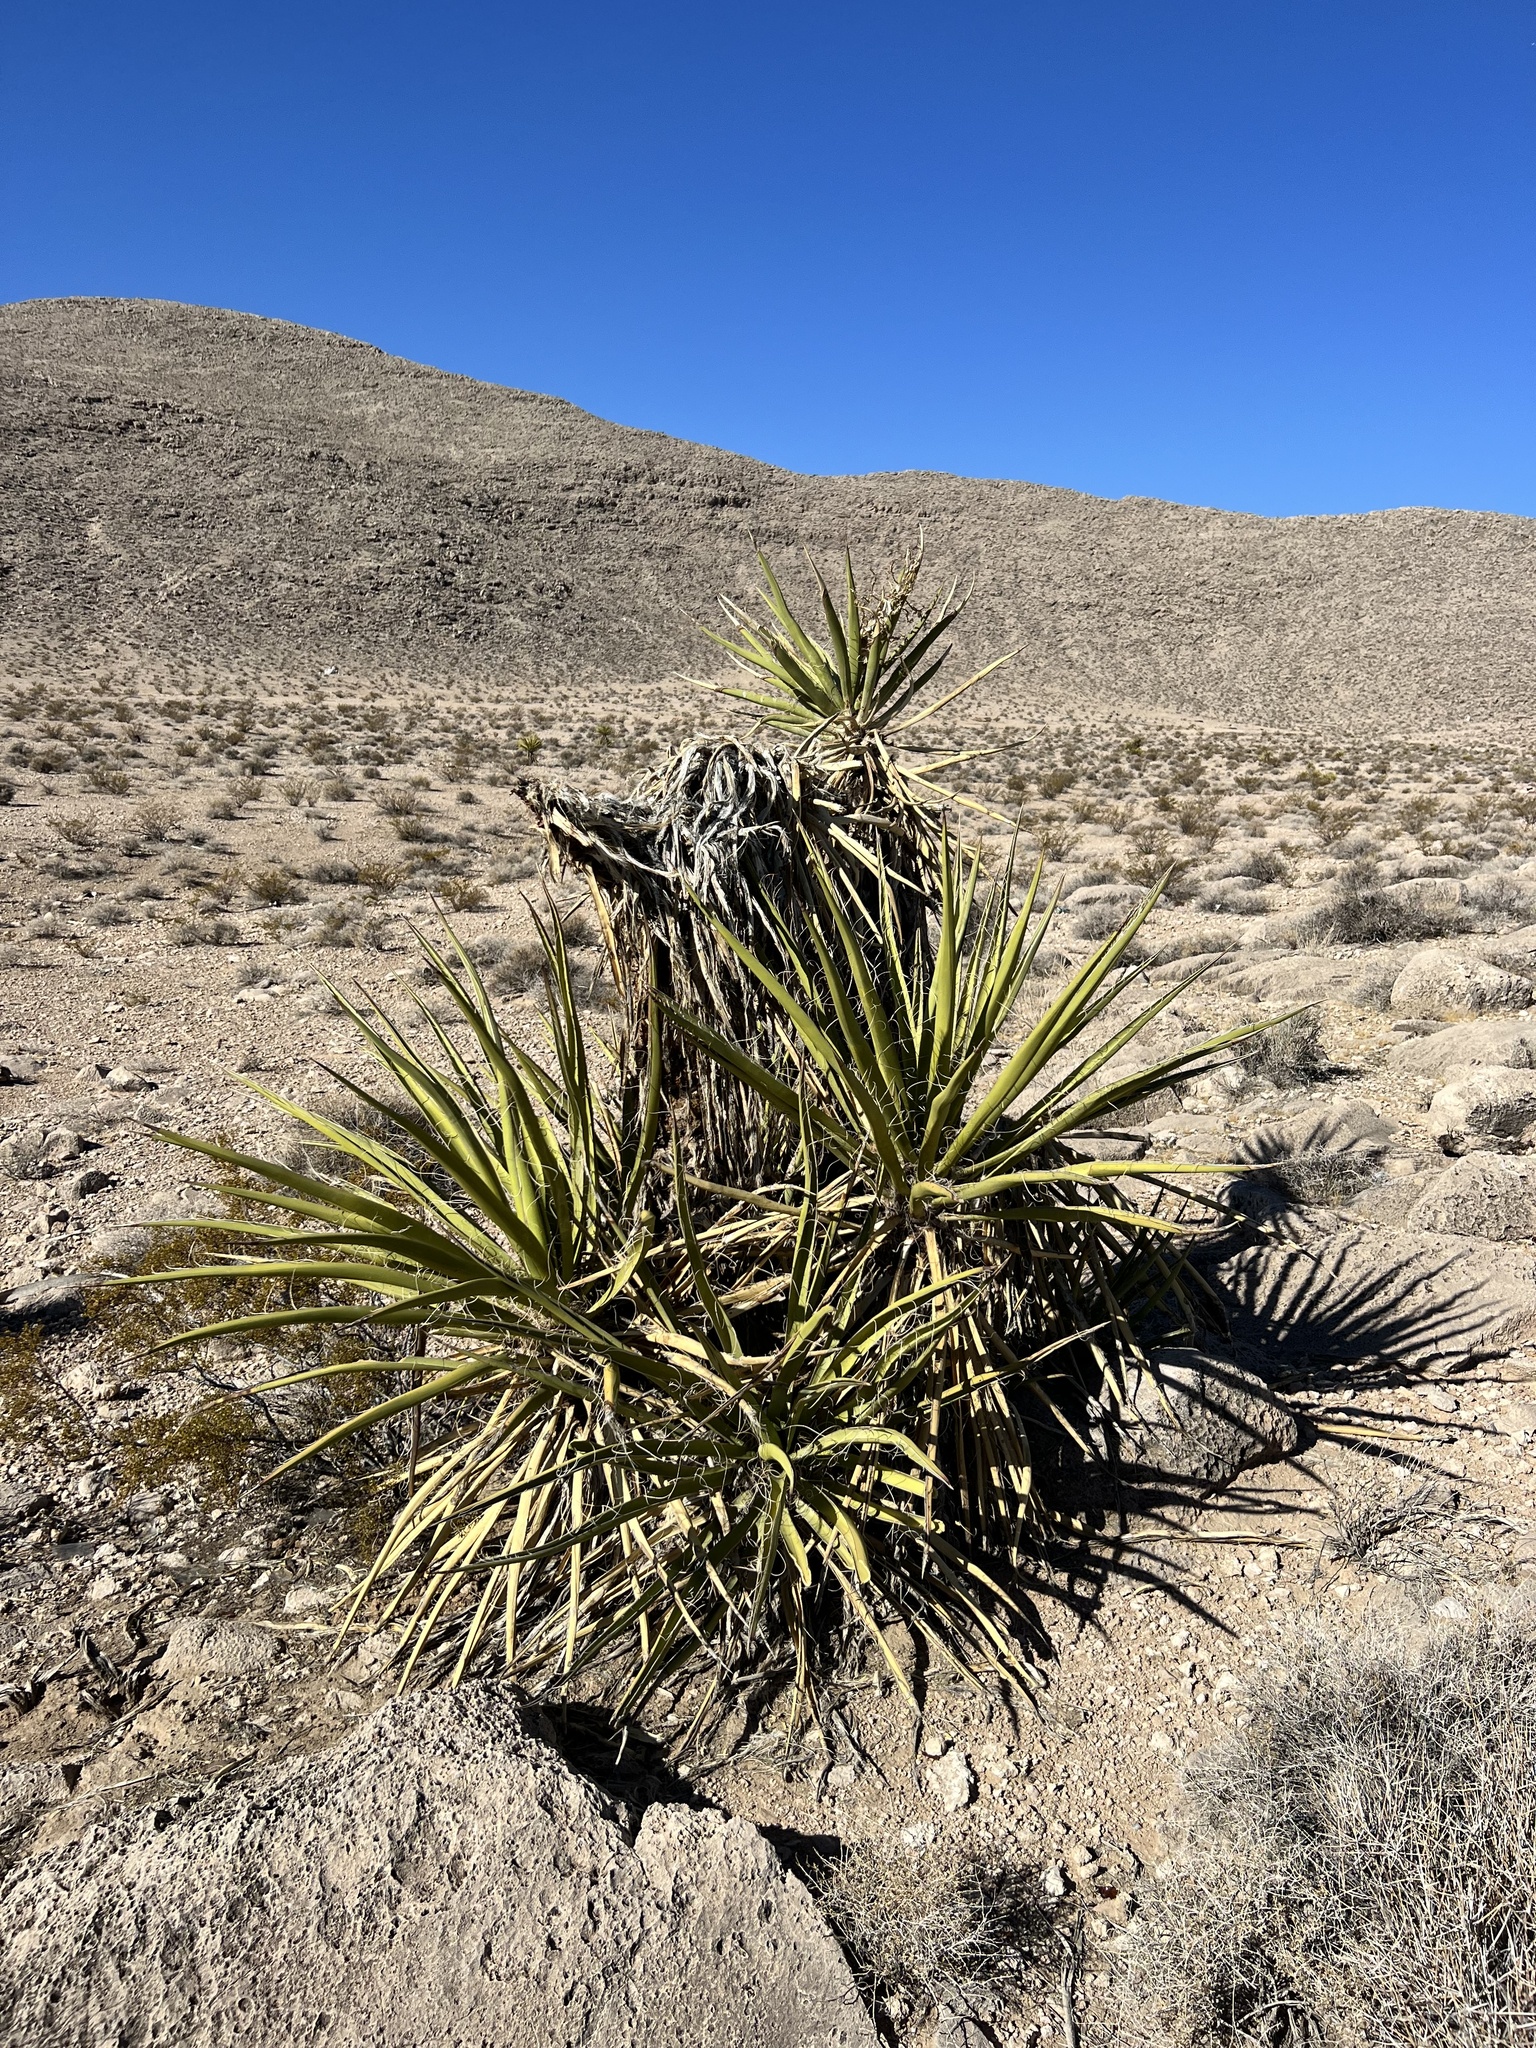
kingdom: Plantae
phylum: Tracheophyta
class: Liliopsida
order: Asparagales
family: Asparagaceae
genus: Yucca
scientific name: Yucca schidigera
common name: Mojave yucca
